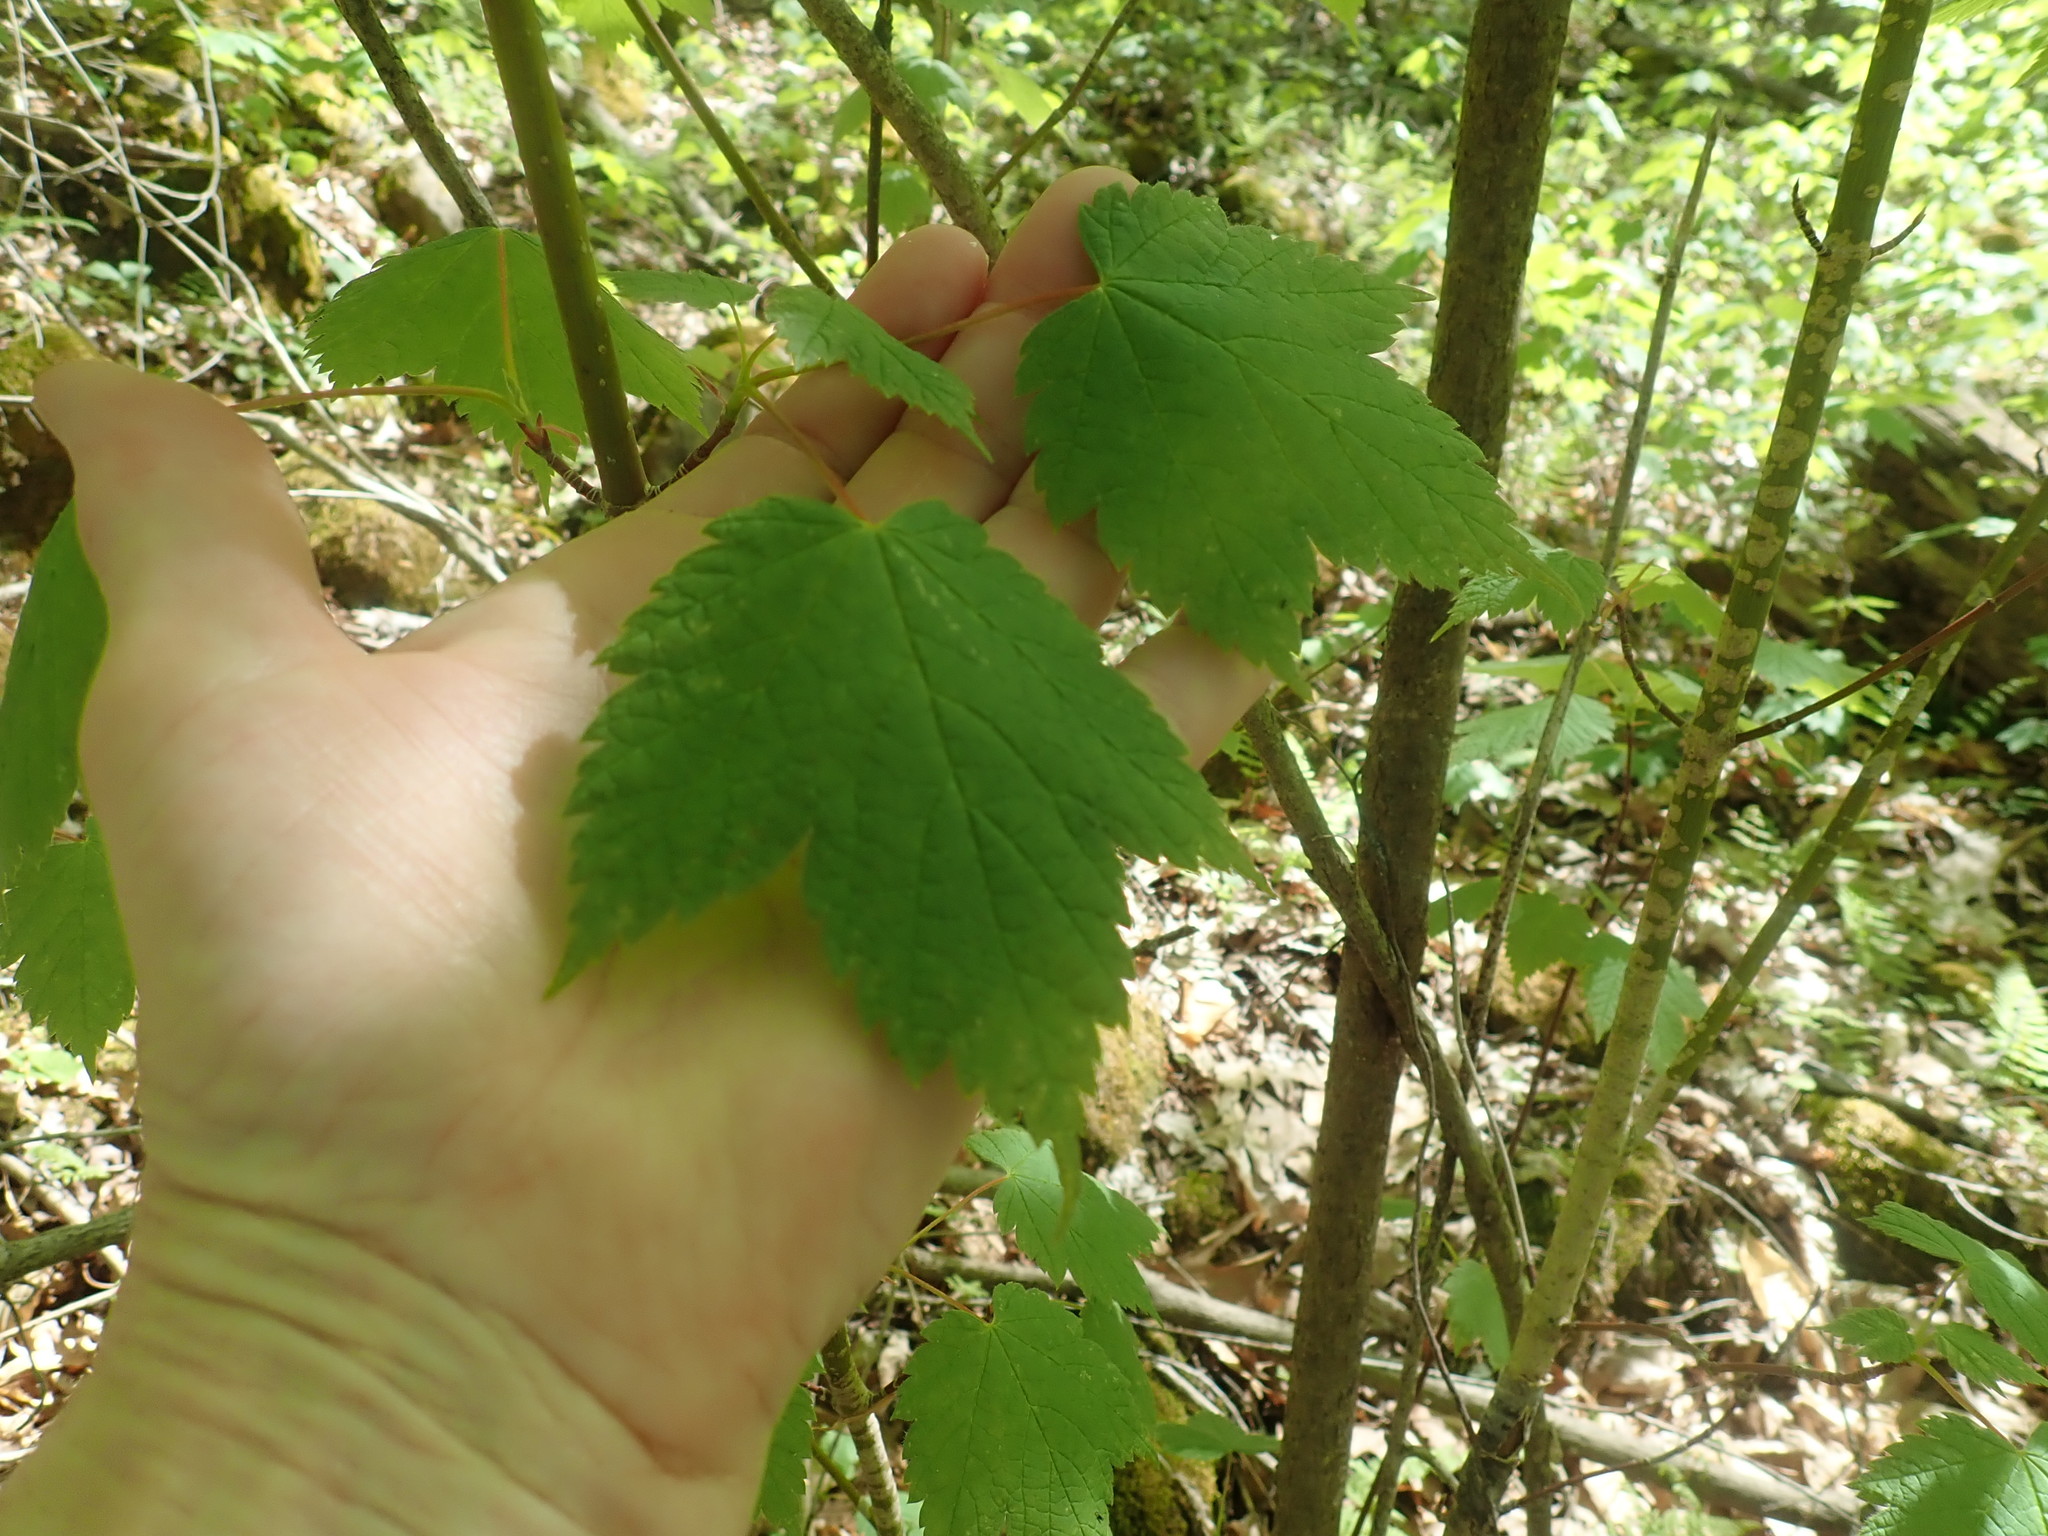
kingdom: Plantae
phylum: Tracheophyta
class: Magnoliopsida
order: Sapindales
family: Sapindaceae
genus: Acer
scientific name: Acer spicatum
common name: Mountain maple
